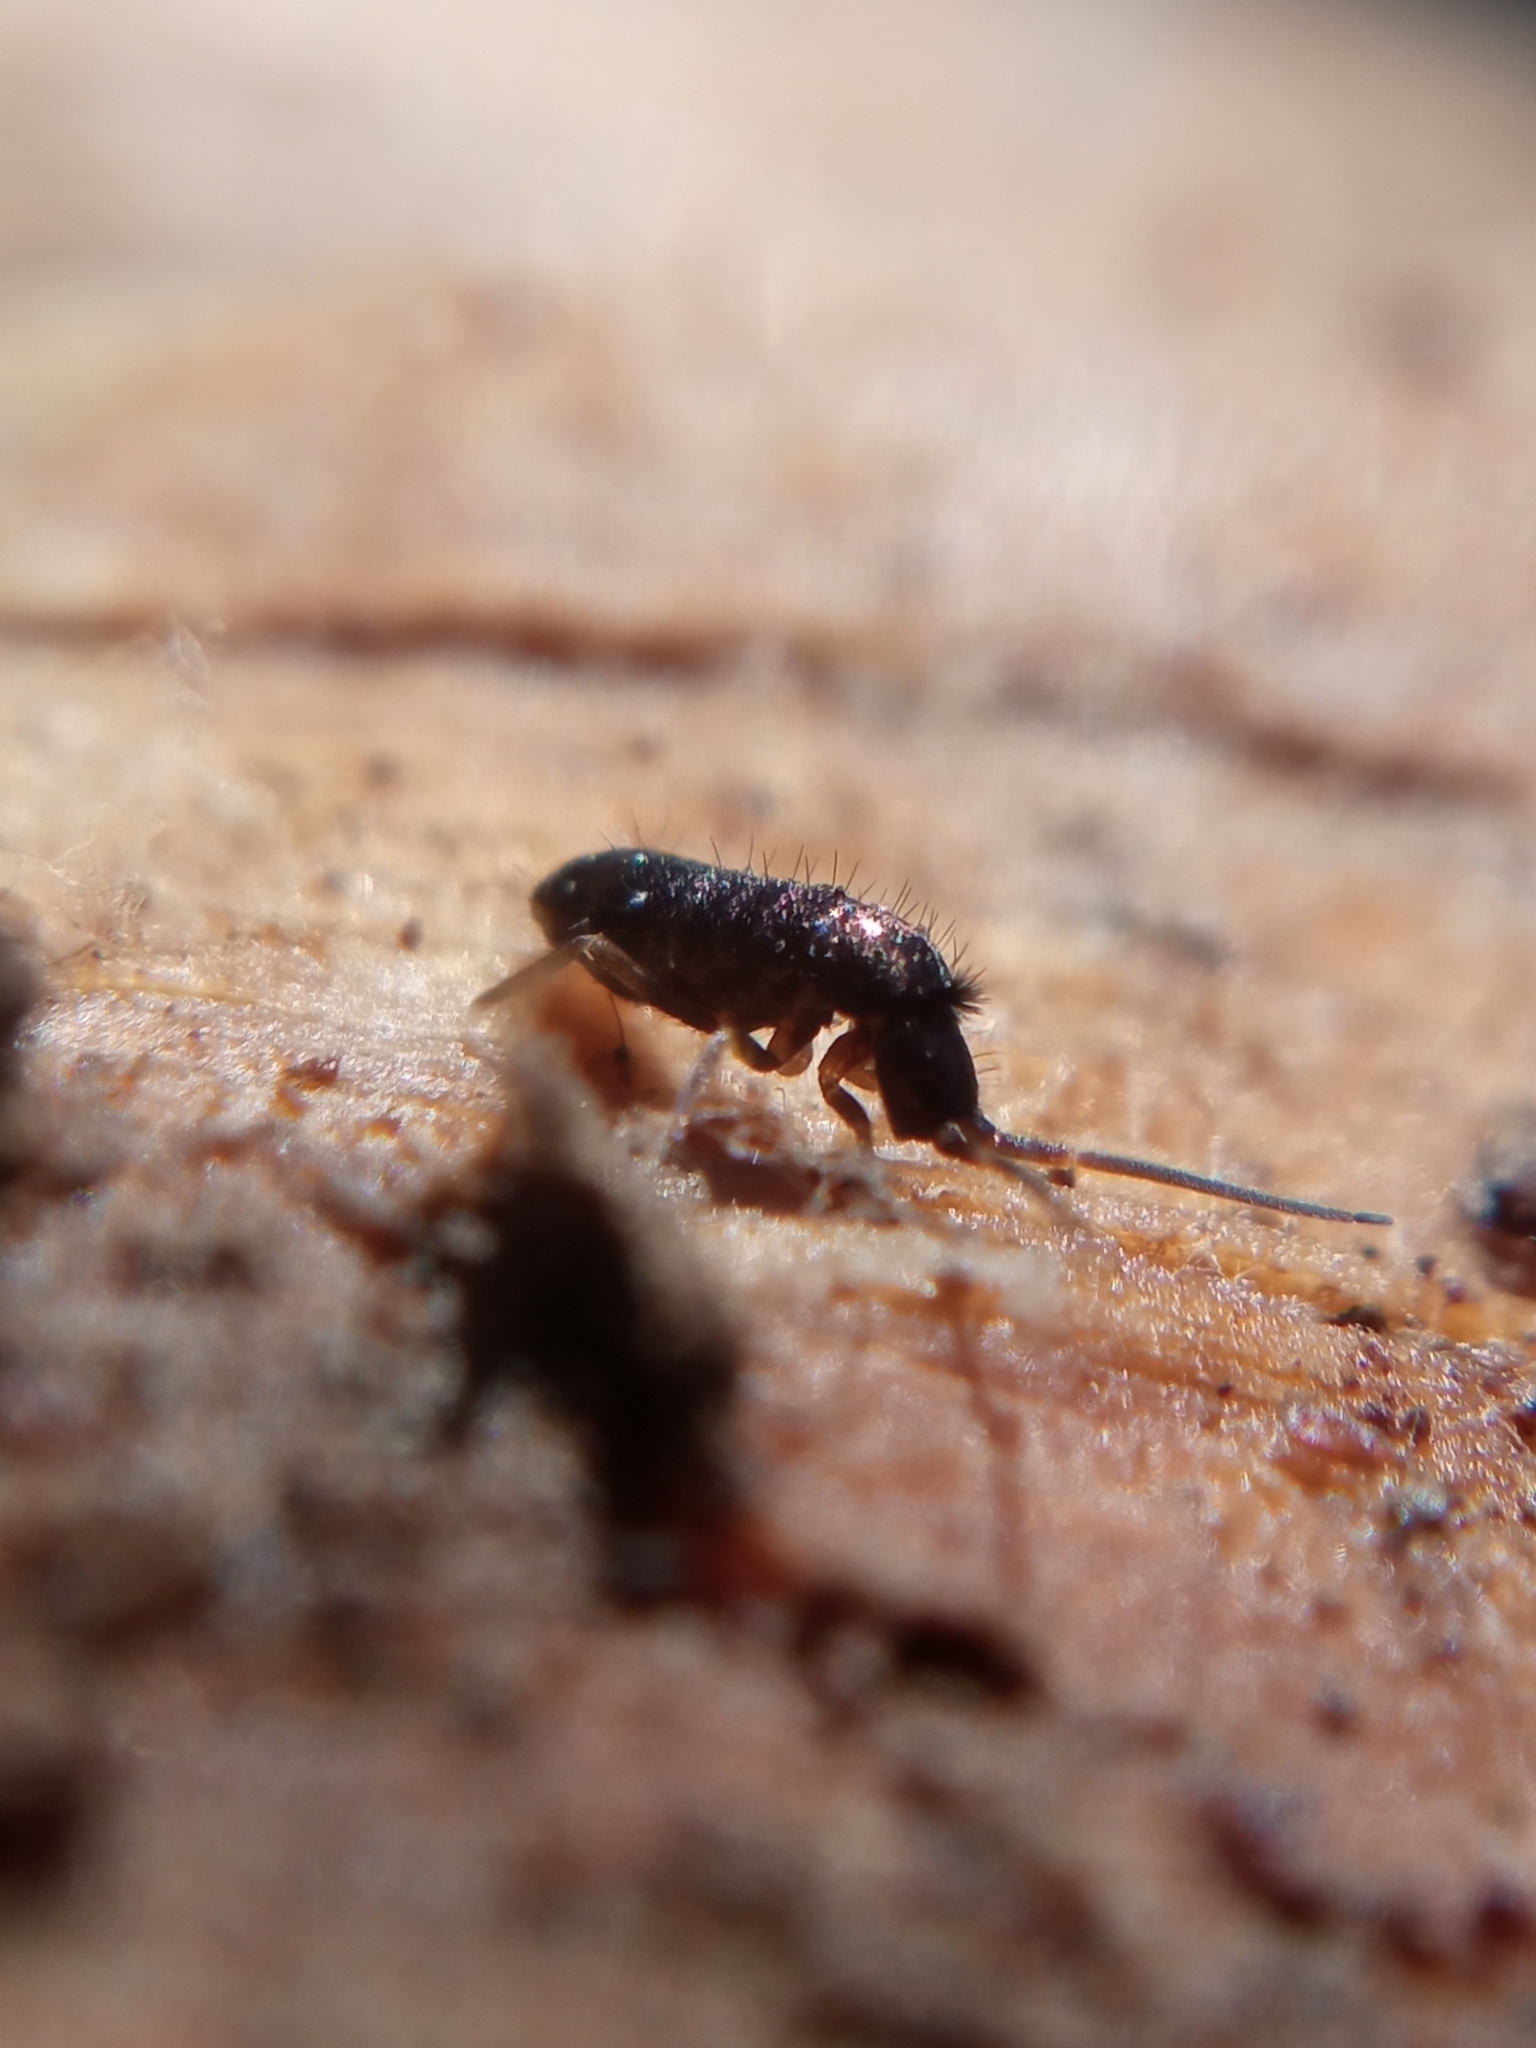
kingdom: Animalia
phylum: Arthropoda
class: Collembola
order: Entomobryomorpha
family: Tomoceridae
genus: Tomocerus
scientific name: Tomocerus vulgaris
